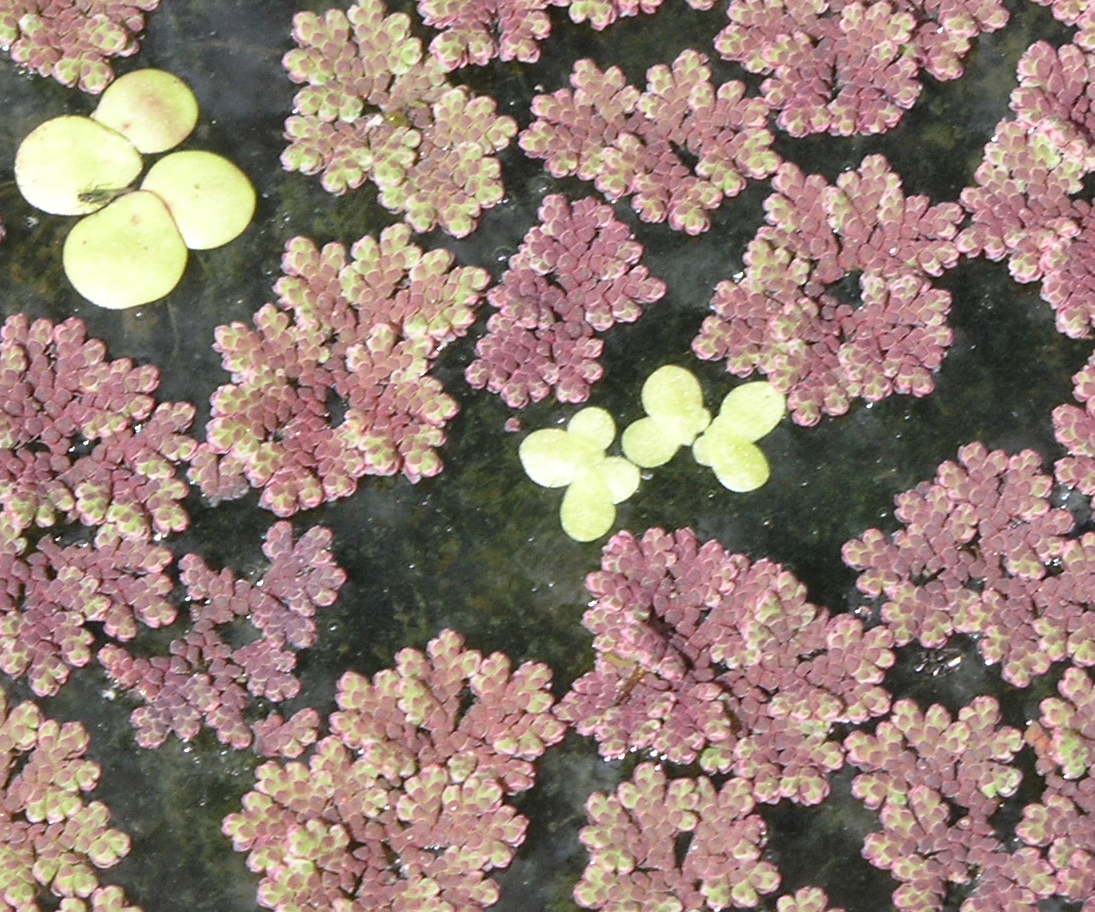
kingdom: Plantae
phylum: Tracheophyta
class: Liliopsida
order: Alismatales
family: Araceae
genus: Lemna
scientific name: Lemna minor
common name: Common duckweed
